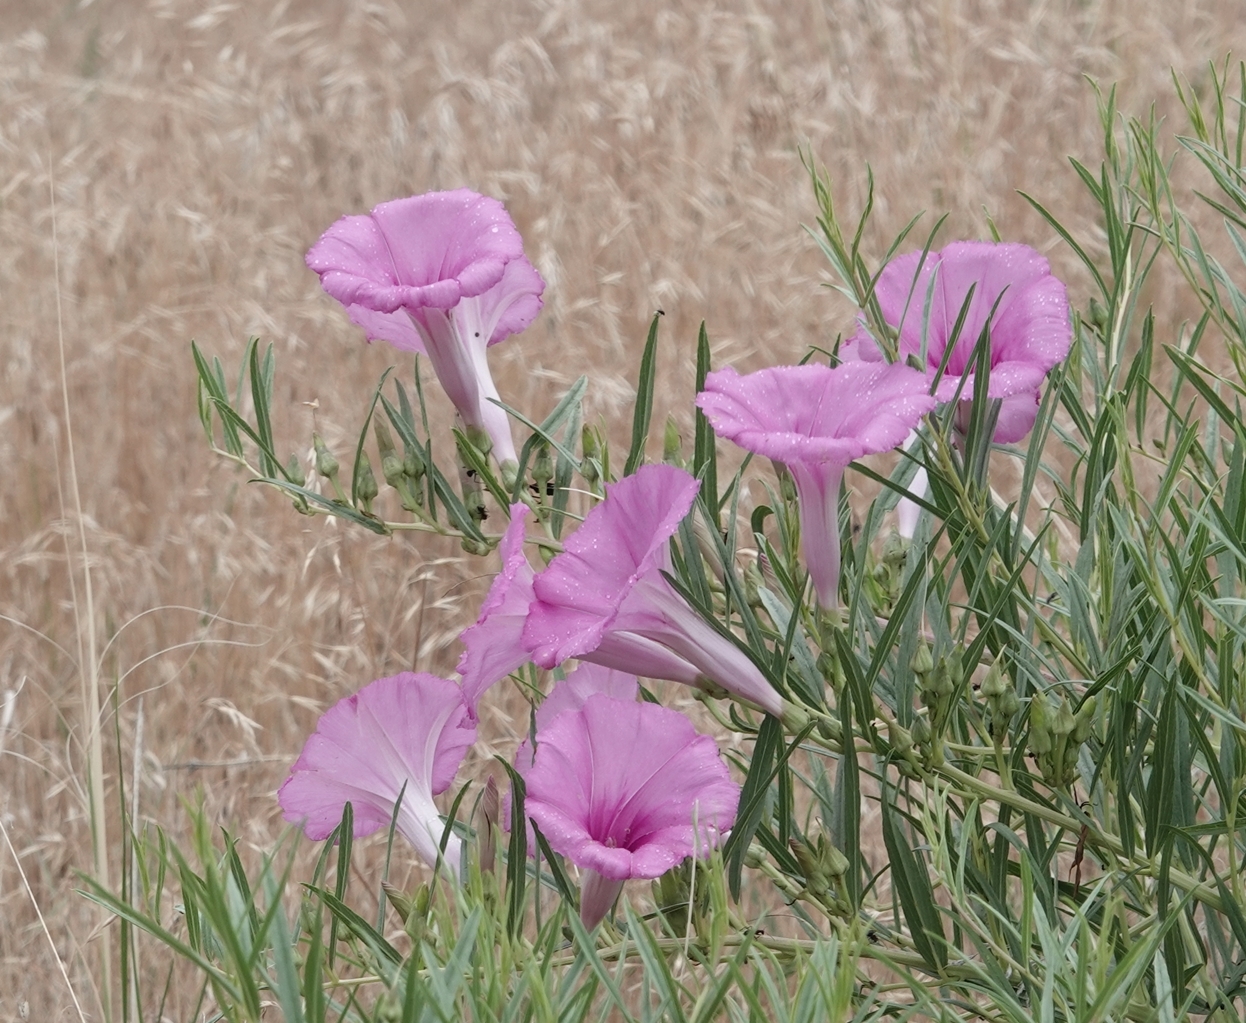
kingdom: Plantae
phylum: Tracheophyta
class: Magnoliopsida
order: Solanales
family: Convolvulaceae
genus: Ipomoea
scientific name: Ipomoea leptophylla
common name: Bush moonflower
